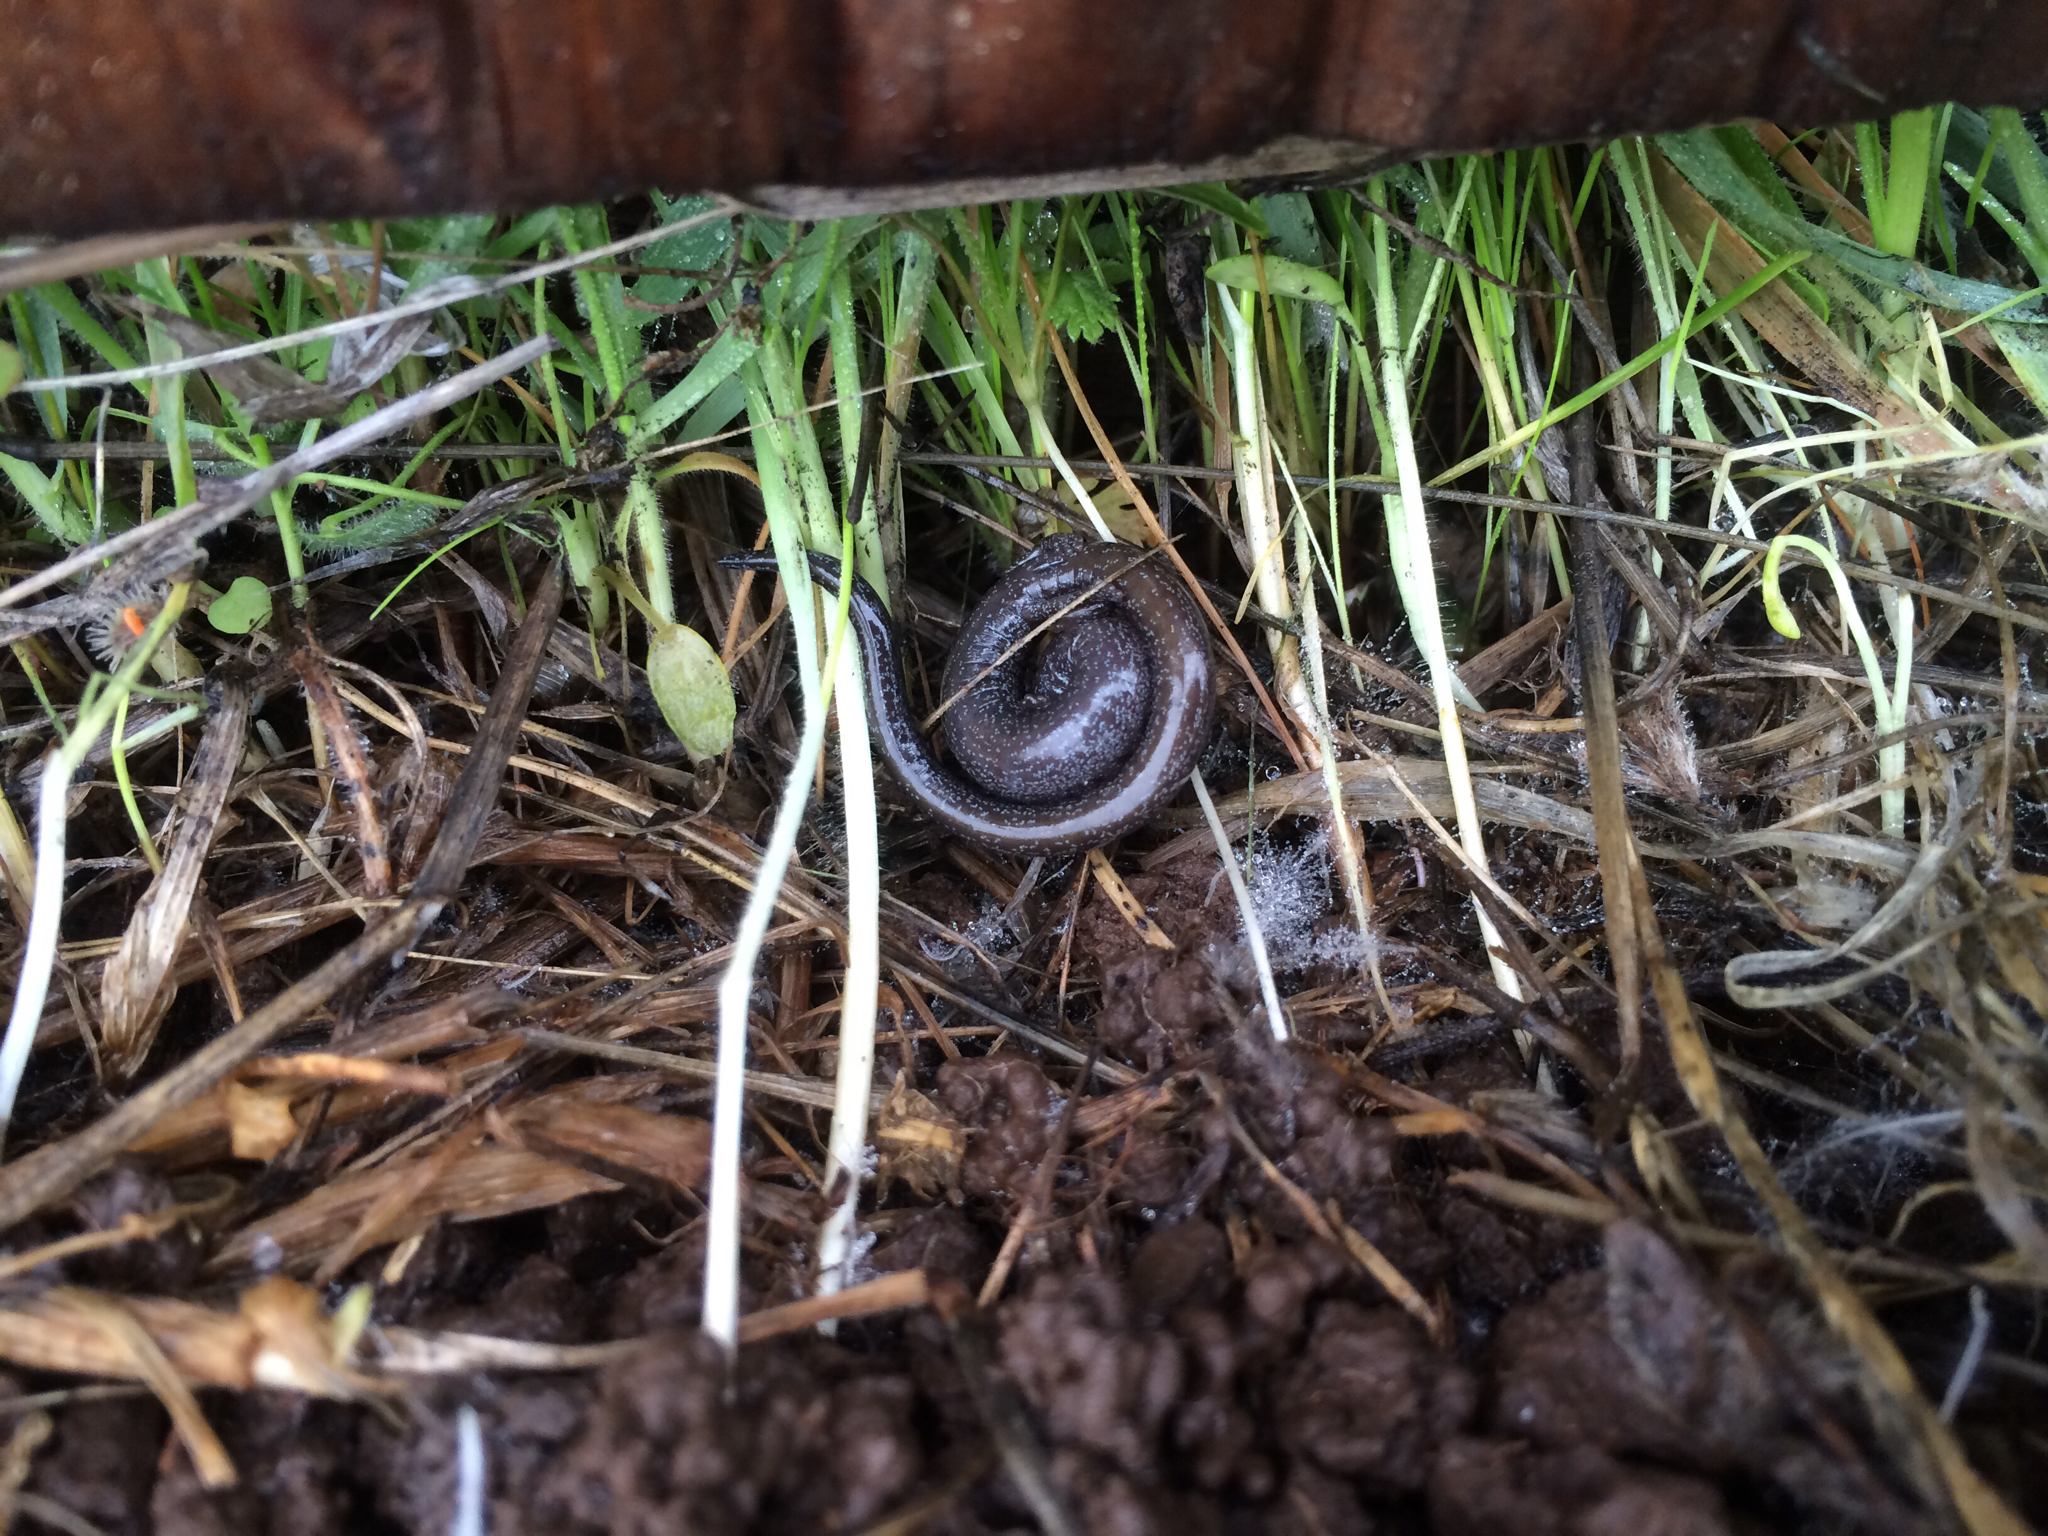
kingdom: Animalia
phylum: Chordata
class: Amphibia
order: Caudata
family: Plethodontidae
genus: Batrachoseps
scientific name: Batrachoseps attenuatus
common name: California slender salamander
